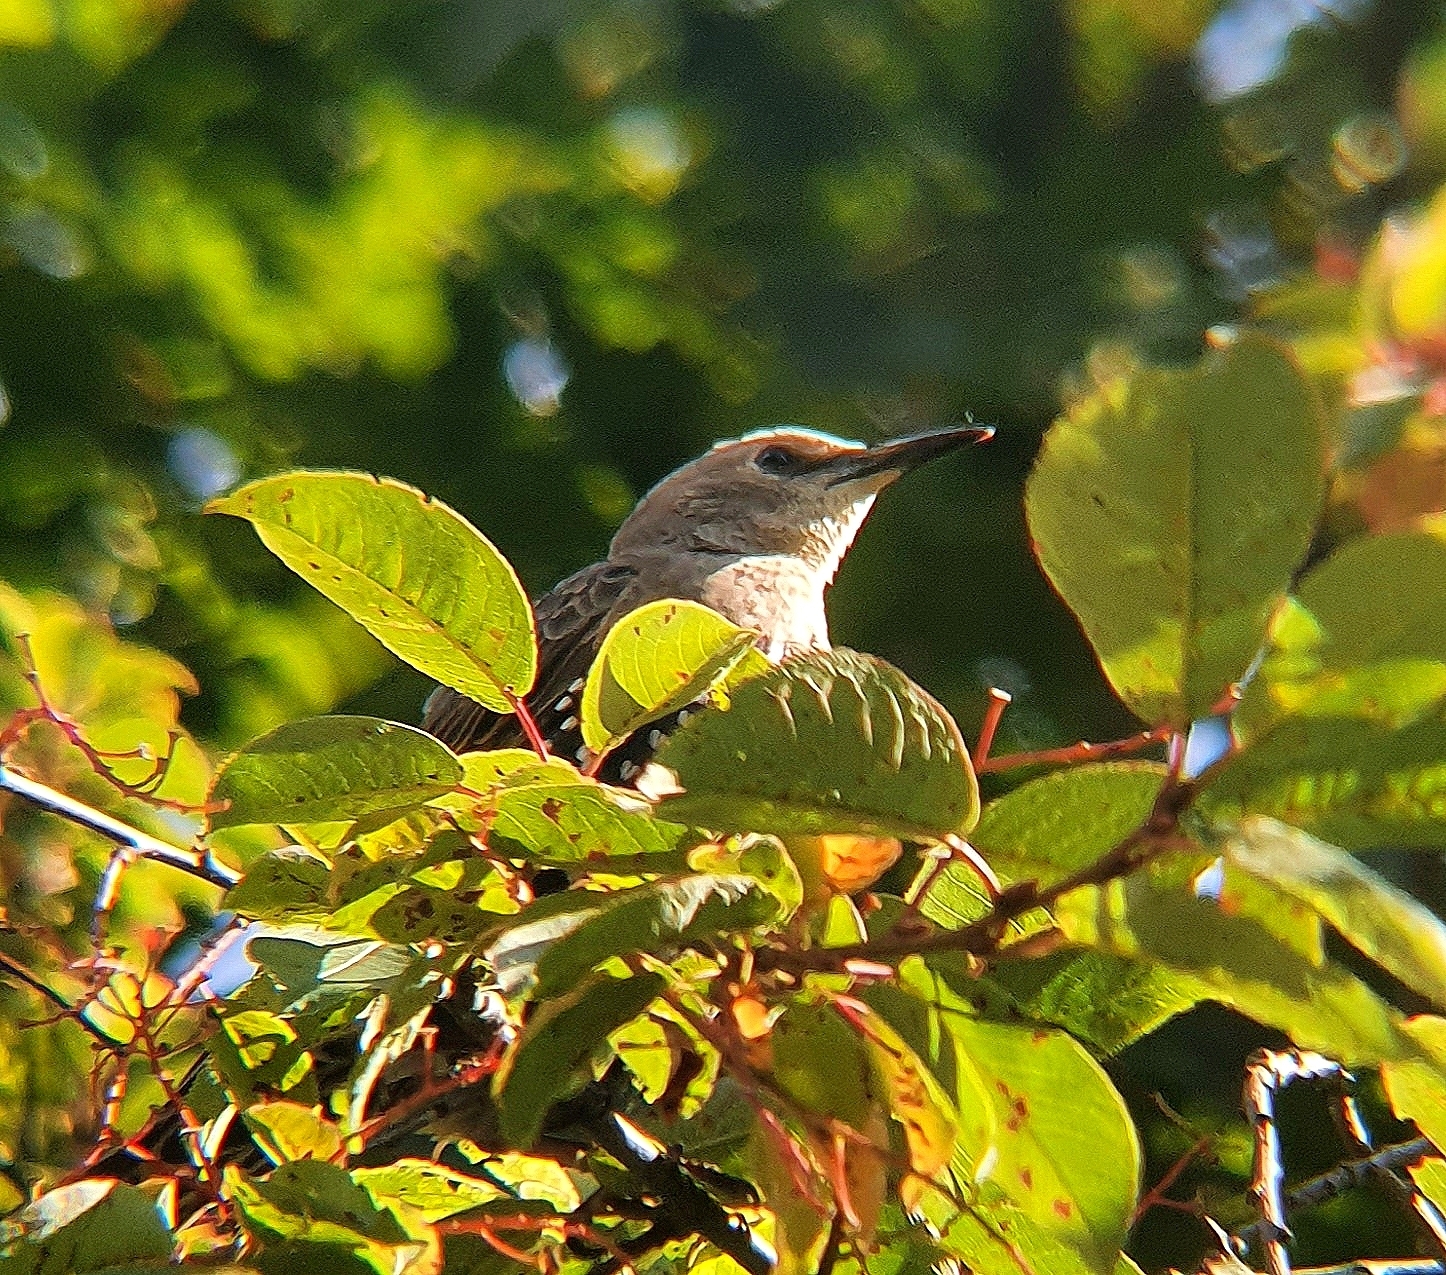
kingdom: Animalia
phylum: Chordata
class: Aves
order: Passeriformes
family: Sturnidae
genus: Sturnus
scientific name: Sturnus vulgaris
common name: Common starling
